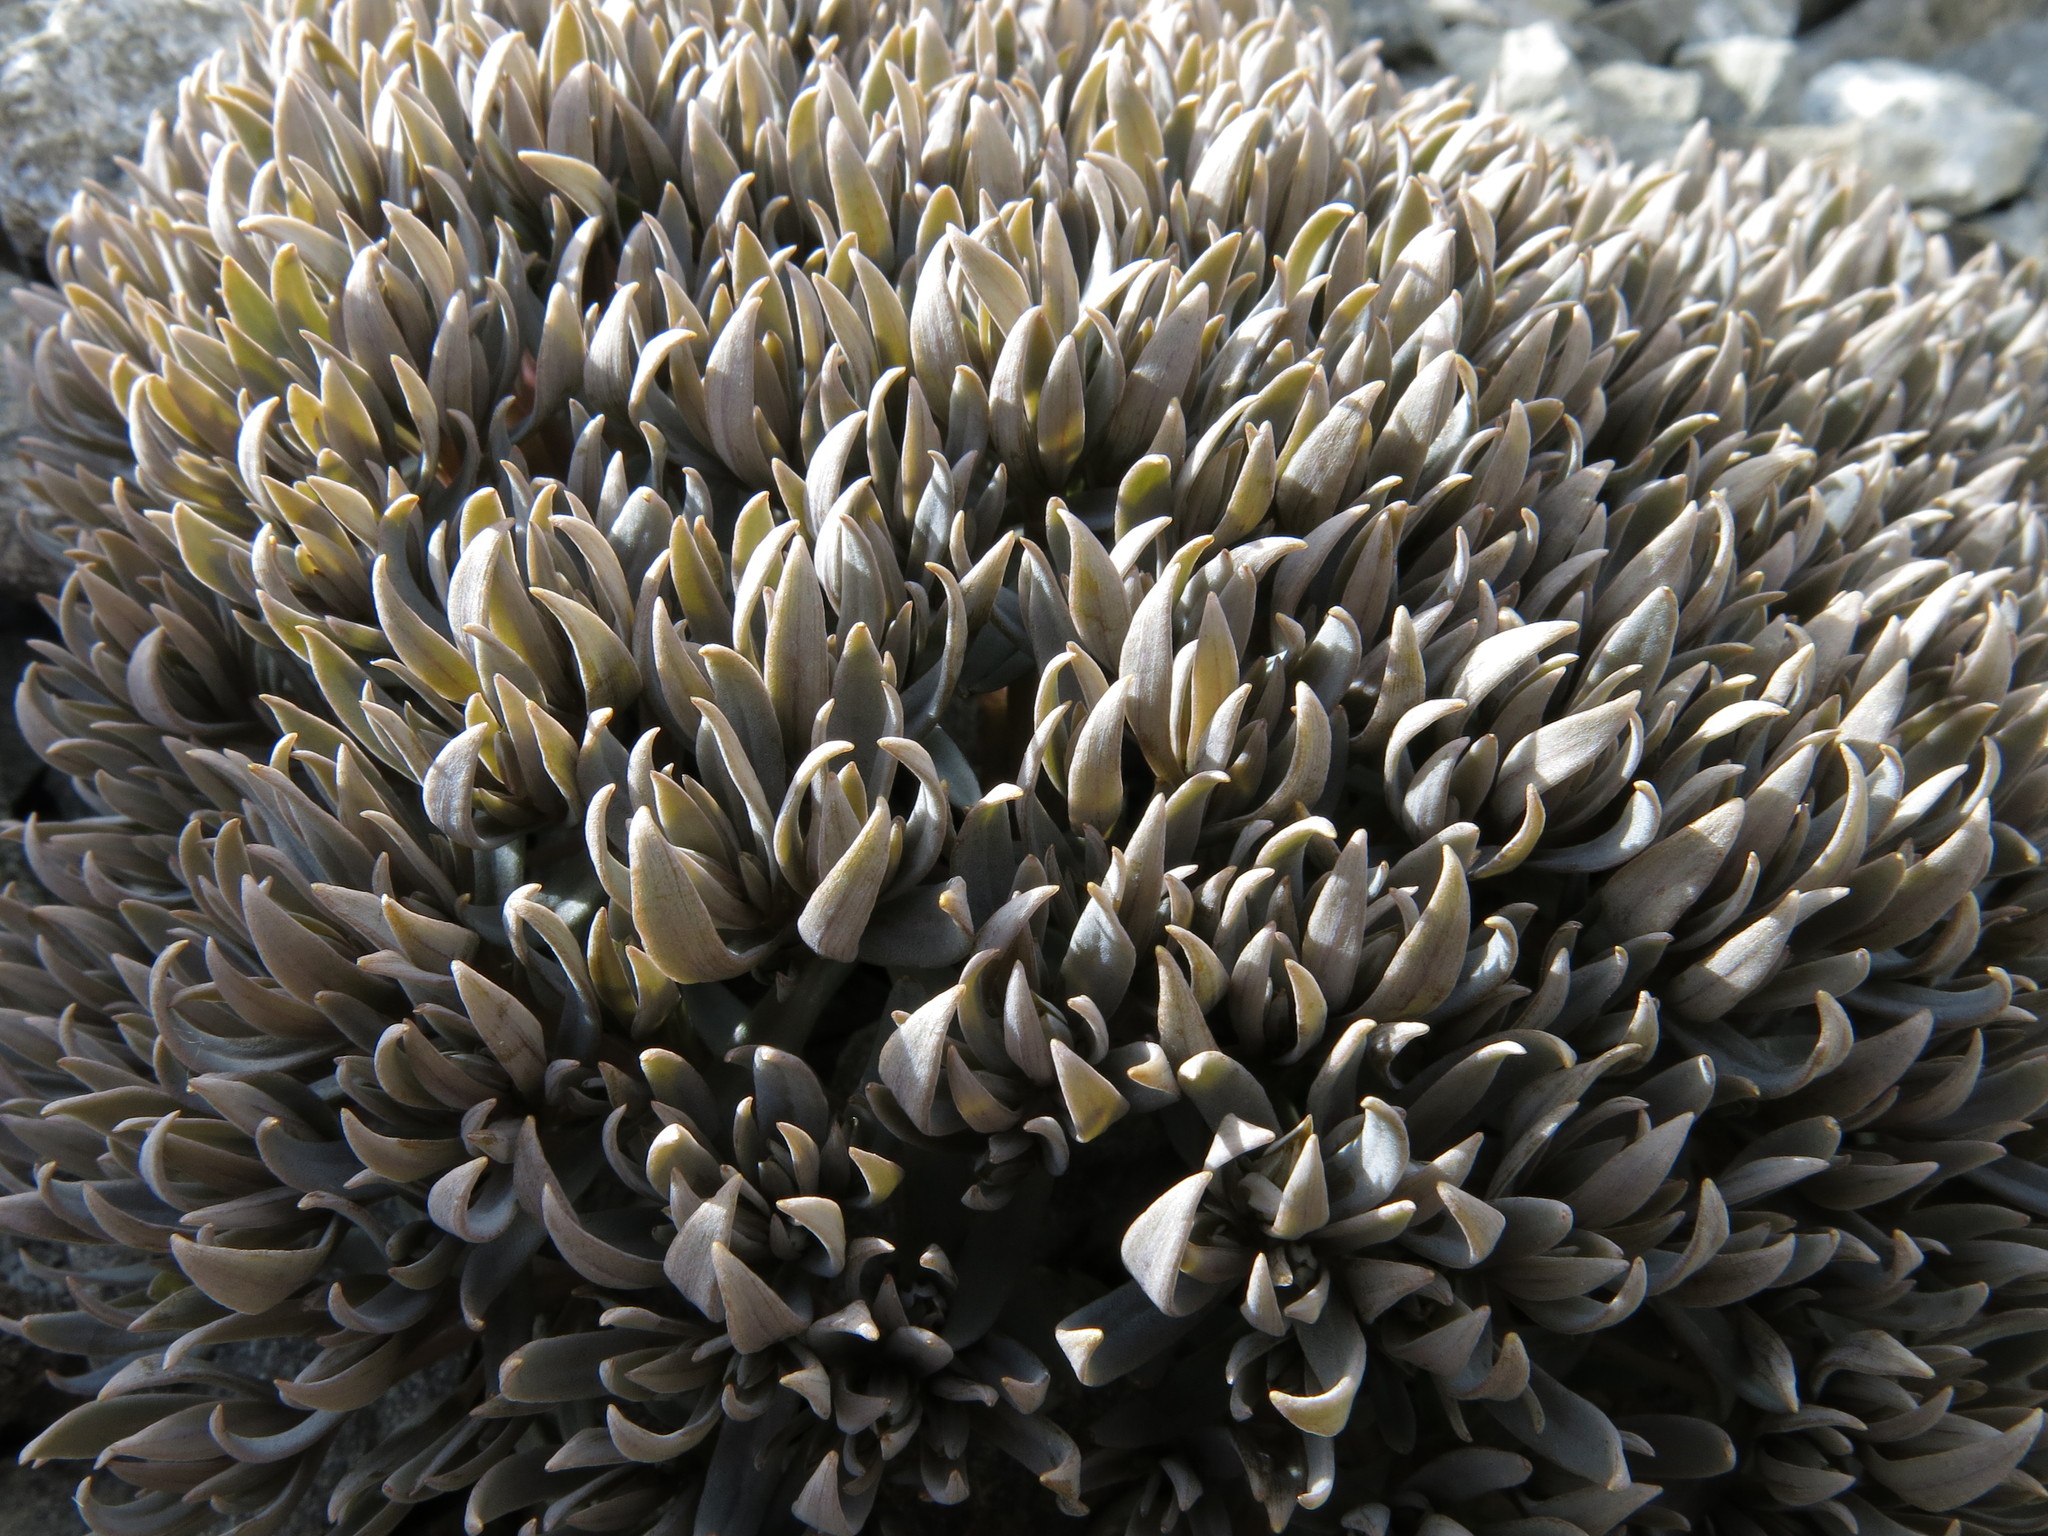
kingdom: Plantae
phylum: Tracheophyta
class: Magnoliopsida
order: Caryophyllales
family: Caryophyllaceae
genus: Stellaria
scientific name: Stellaria roughii
